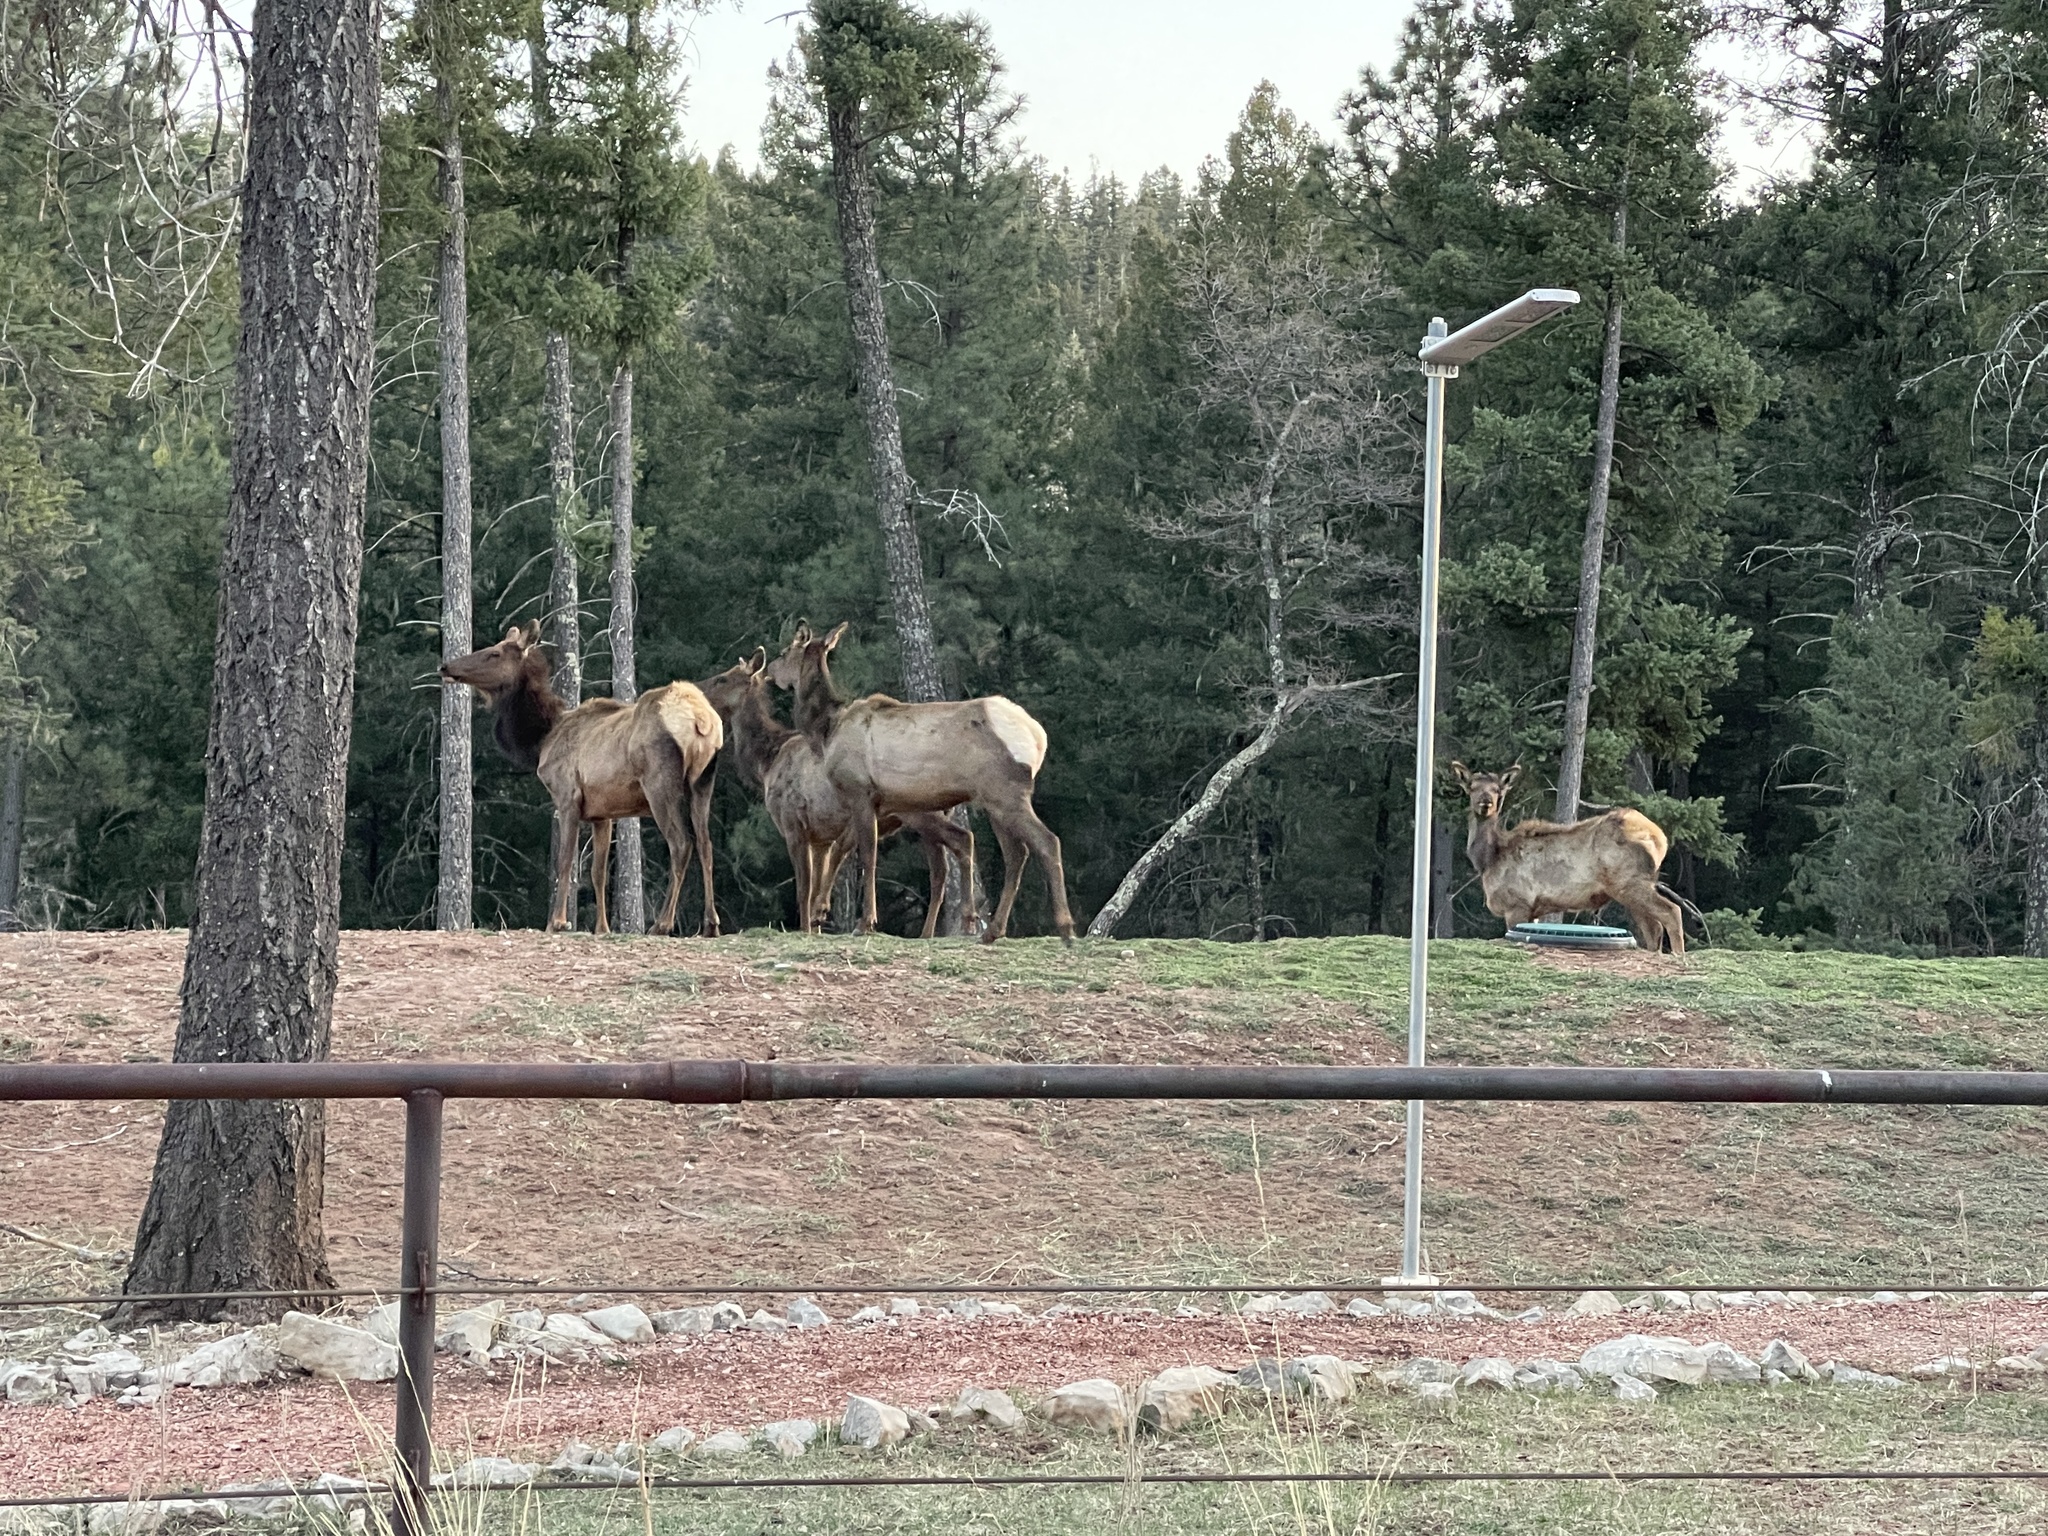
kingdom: Animalia
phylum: Chordata
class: Mammalia
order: Artiodactyla
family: Cervidae
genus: Cervus
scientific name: Cervus elaphus
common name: Red deer
